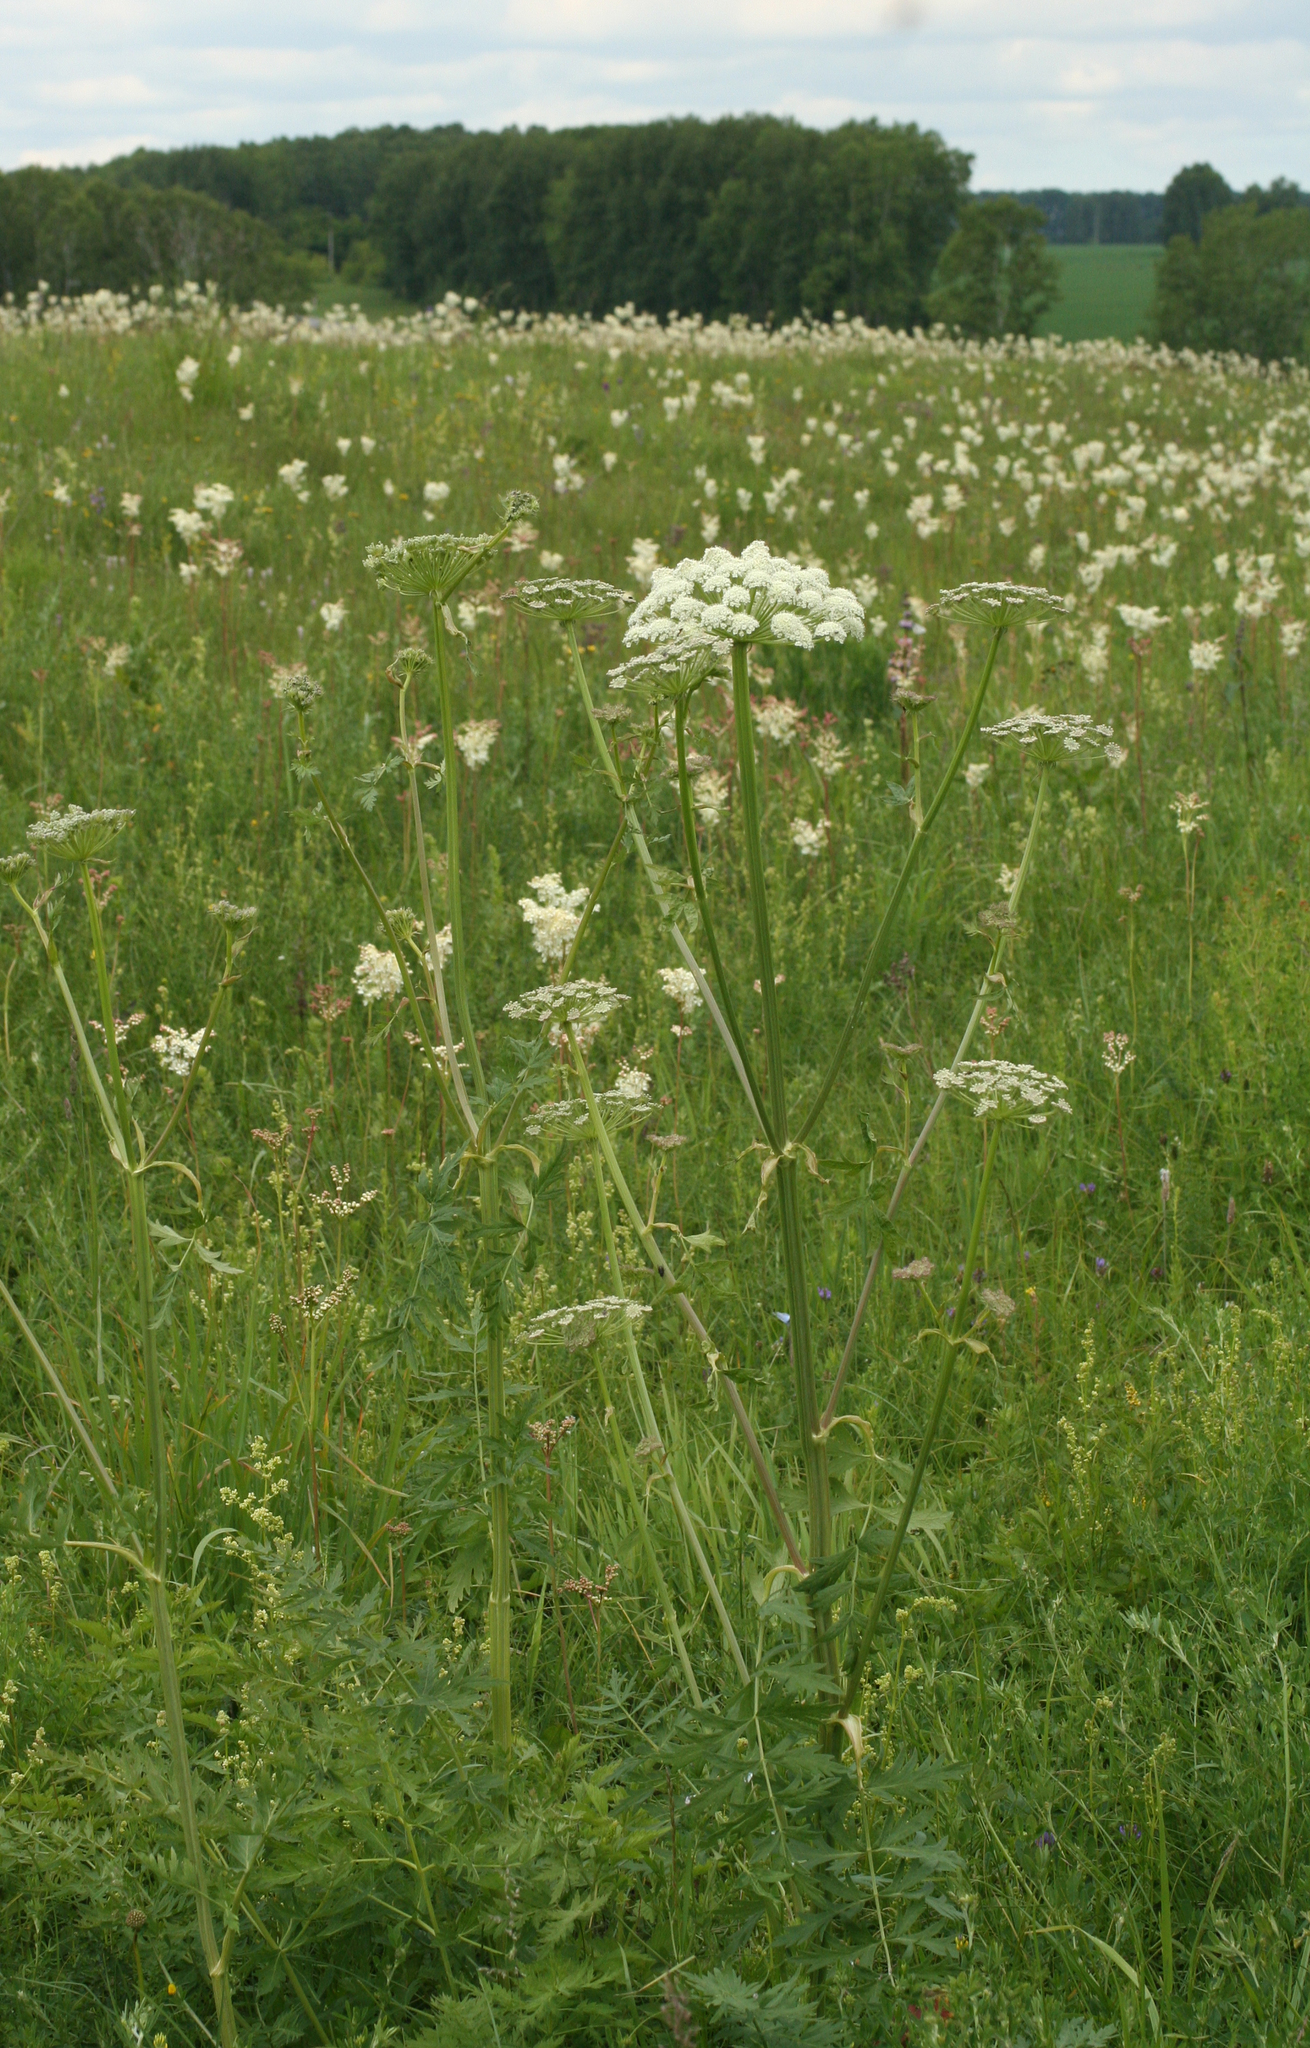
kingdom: Plantae
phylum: Tracheophyta
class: Magnoliopsida
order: Apiales
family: Apiaceae
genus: Seseli
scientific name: Seseli libanotis
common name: Mooncarrot
